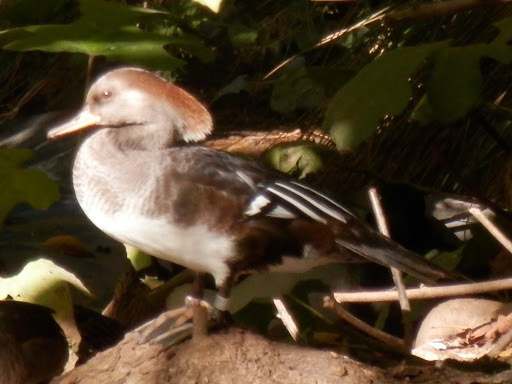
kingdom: Animalia
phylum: Chordata
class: Aves
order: Anseriformes
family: Anatidae
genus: Lophodytes
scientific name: Lophodytes cucullatus
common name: Hooded merganser
